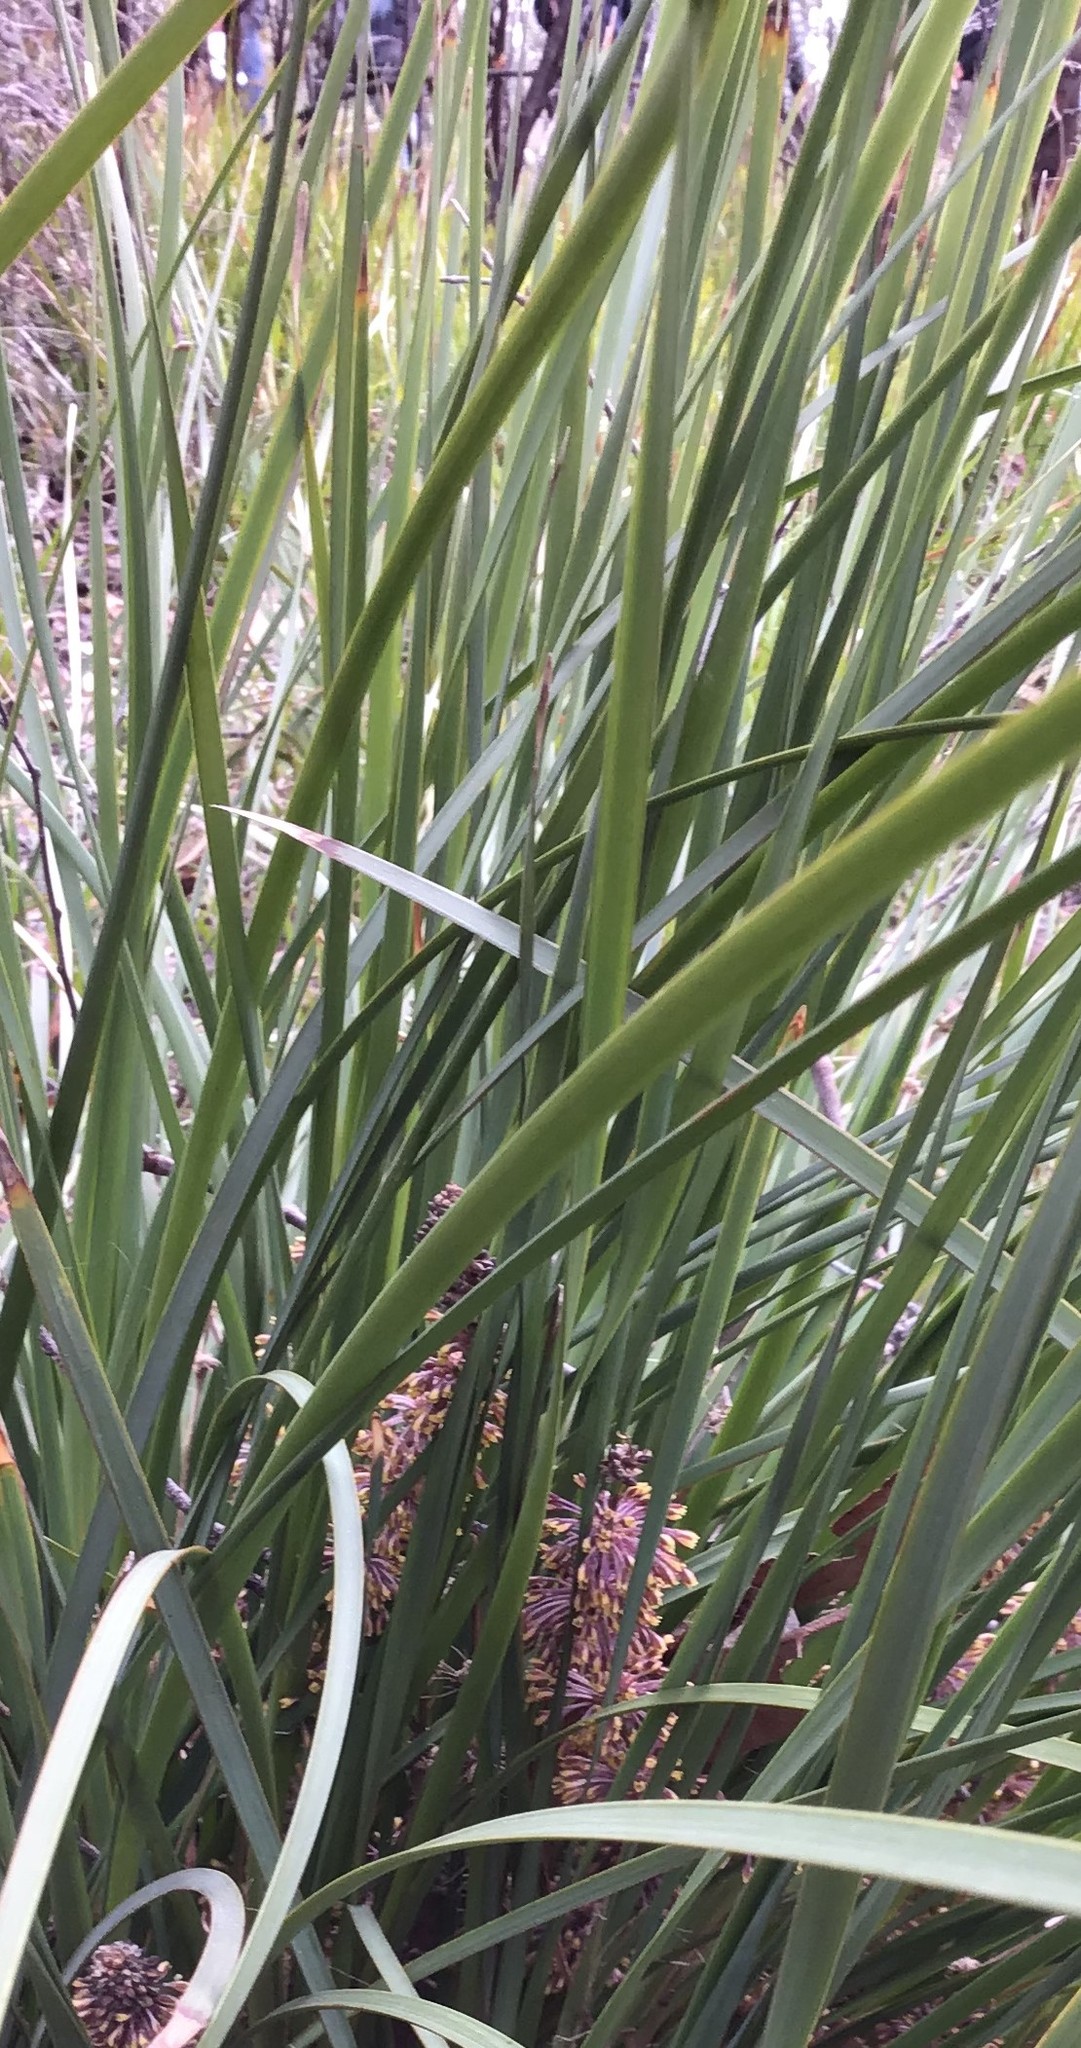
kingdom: Plantae
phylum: Tracheophyta
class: Liliopsida
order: Asparagales
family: Asparagaceae
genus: Lomandra
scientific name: Lomandra multiflora
